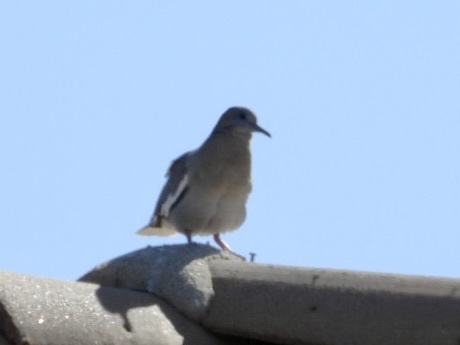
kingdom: Animalia
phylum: Chordata
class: Aves
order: Columbiformes
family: Columbidae
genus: Zenaida
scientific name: Zenaida asiatica
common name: White-winged dove
